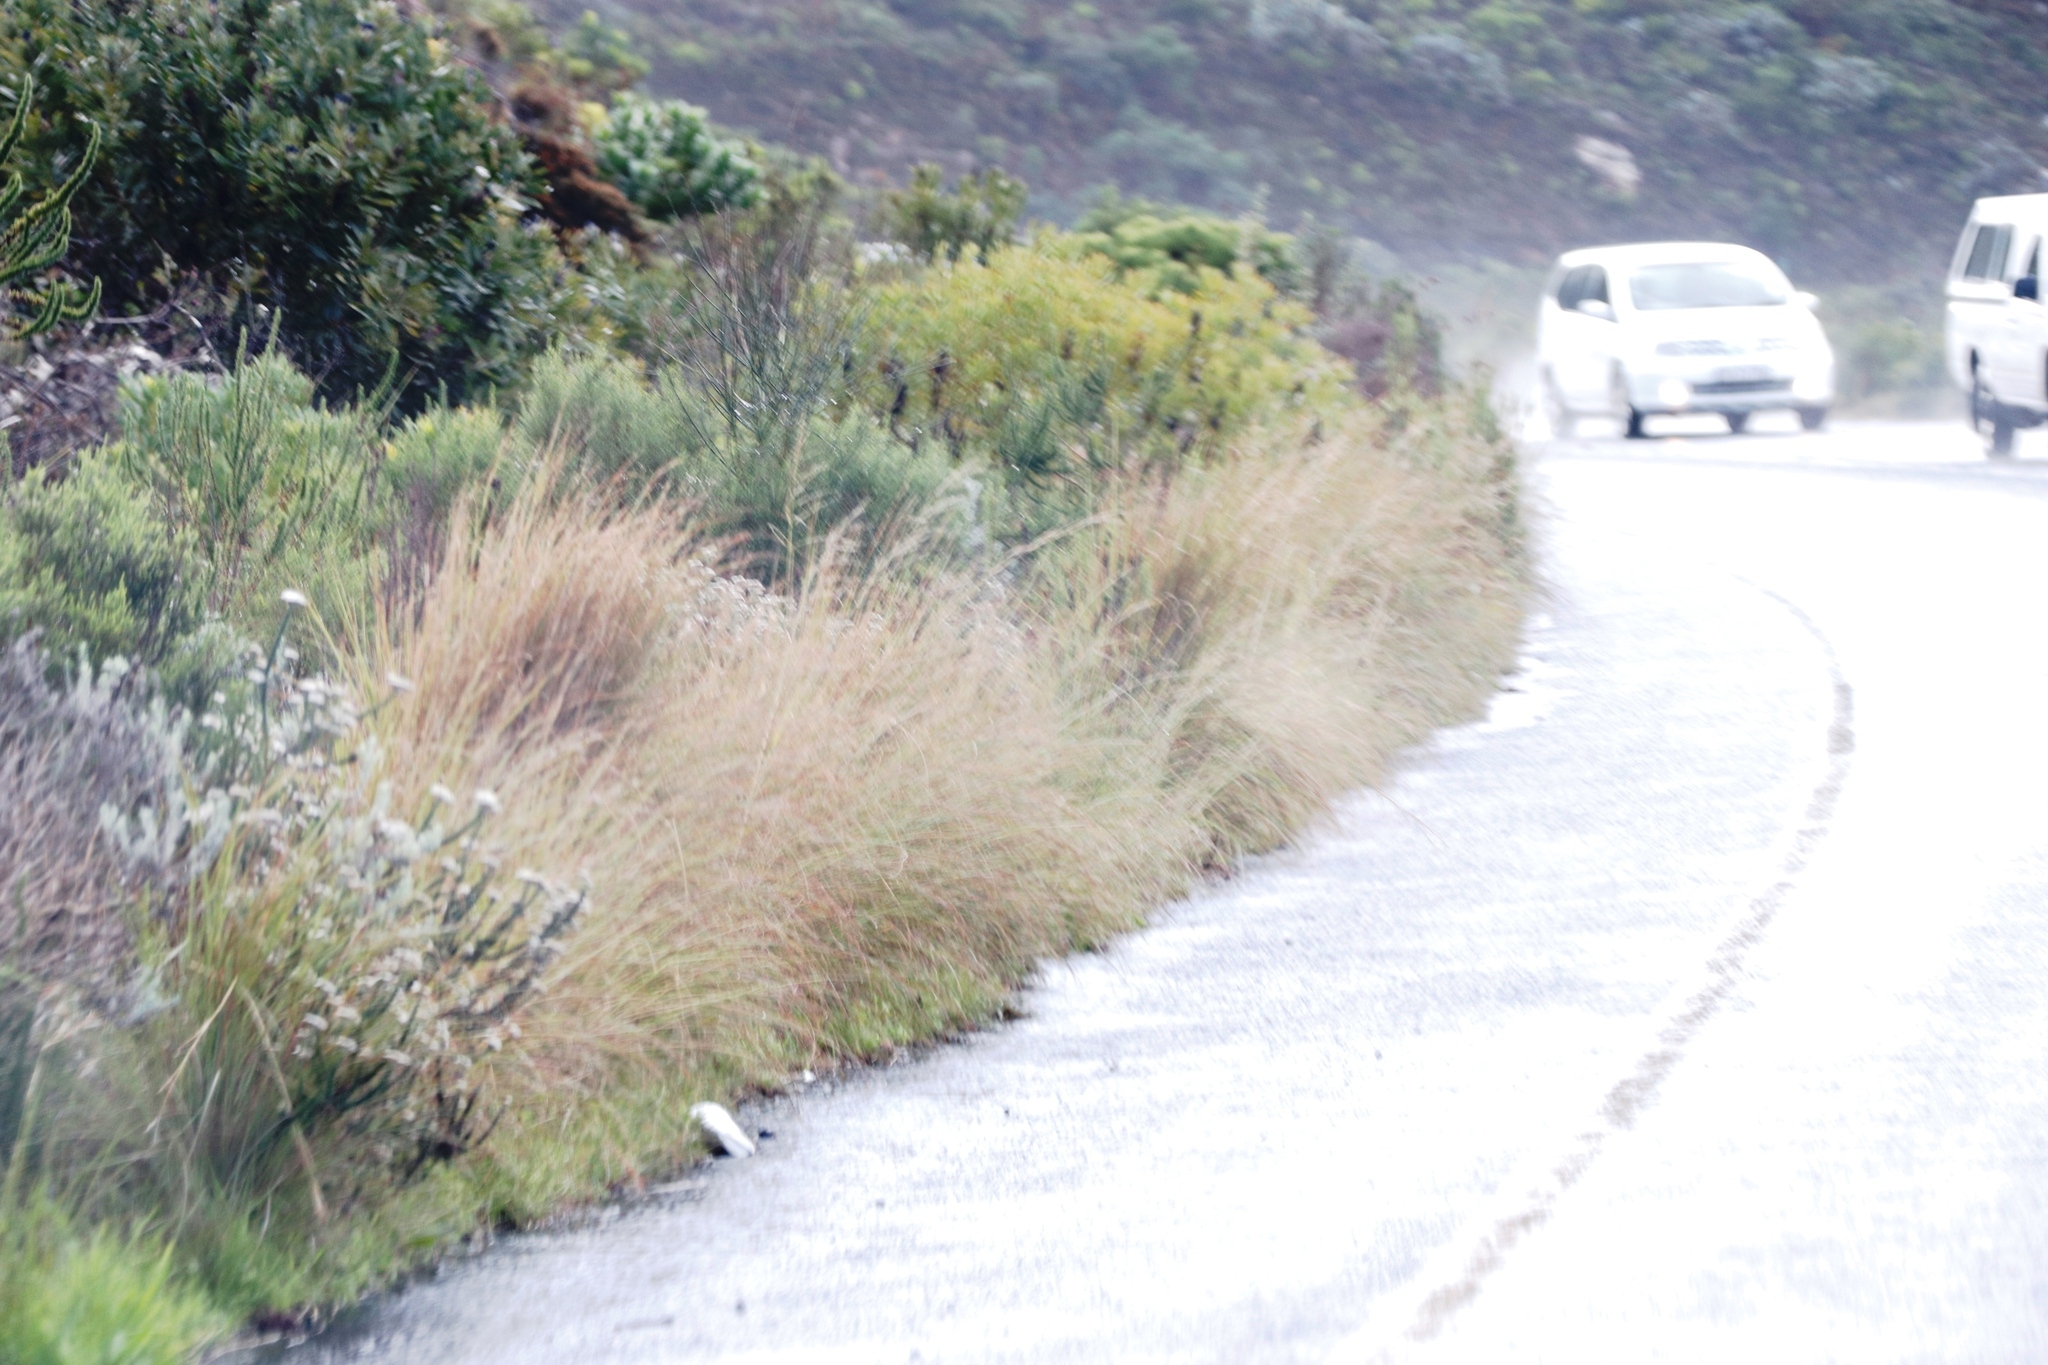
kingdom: Plantae
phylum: Tracheophyta
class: Liliopsida
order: Poales
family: Poaceae
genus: Hyparrhenia
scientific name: Hyparrhenia hirta
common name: Thatching grass
